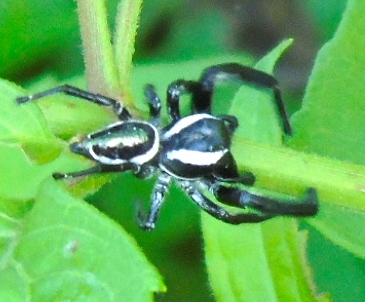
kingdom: Animalia
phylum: Arthropoda
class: Arachnida
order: Araneae
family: Salticidae
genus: Paraphidippus
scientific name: Paraphidippus aurantius
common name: Jumping spiders
